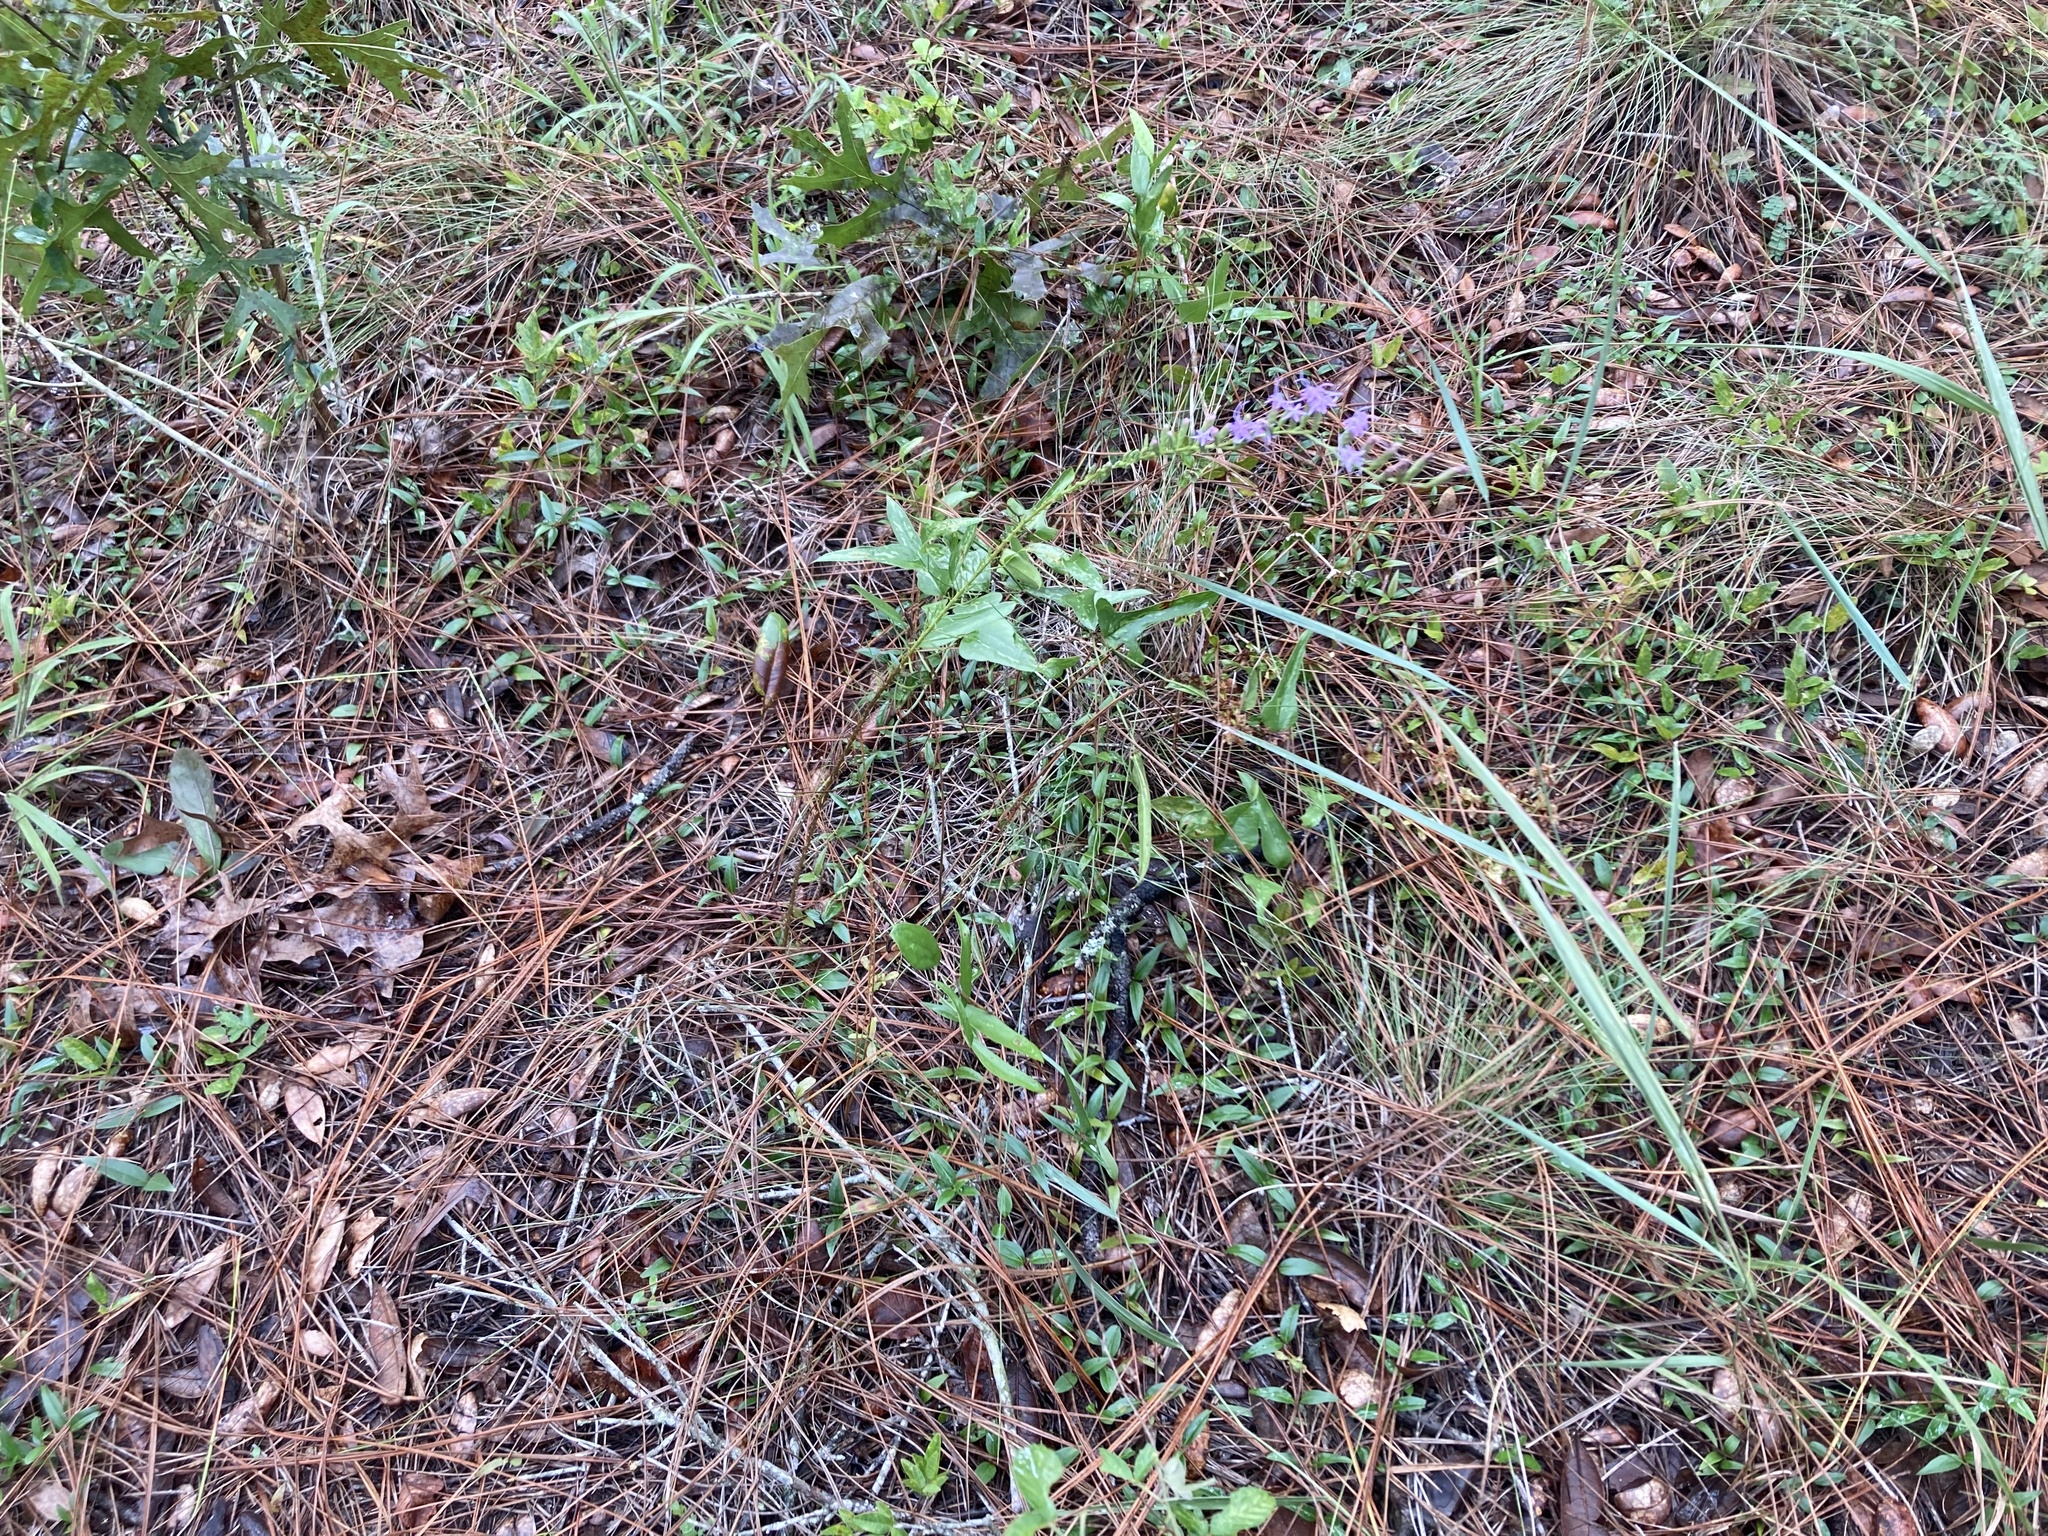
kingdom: Plantae
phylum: Tracheophyta
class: Magnoliopsida
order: Asterales
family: Asteraceae
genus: Liatris
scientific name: Liatris pauciflora
